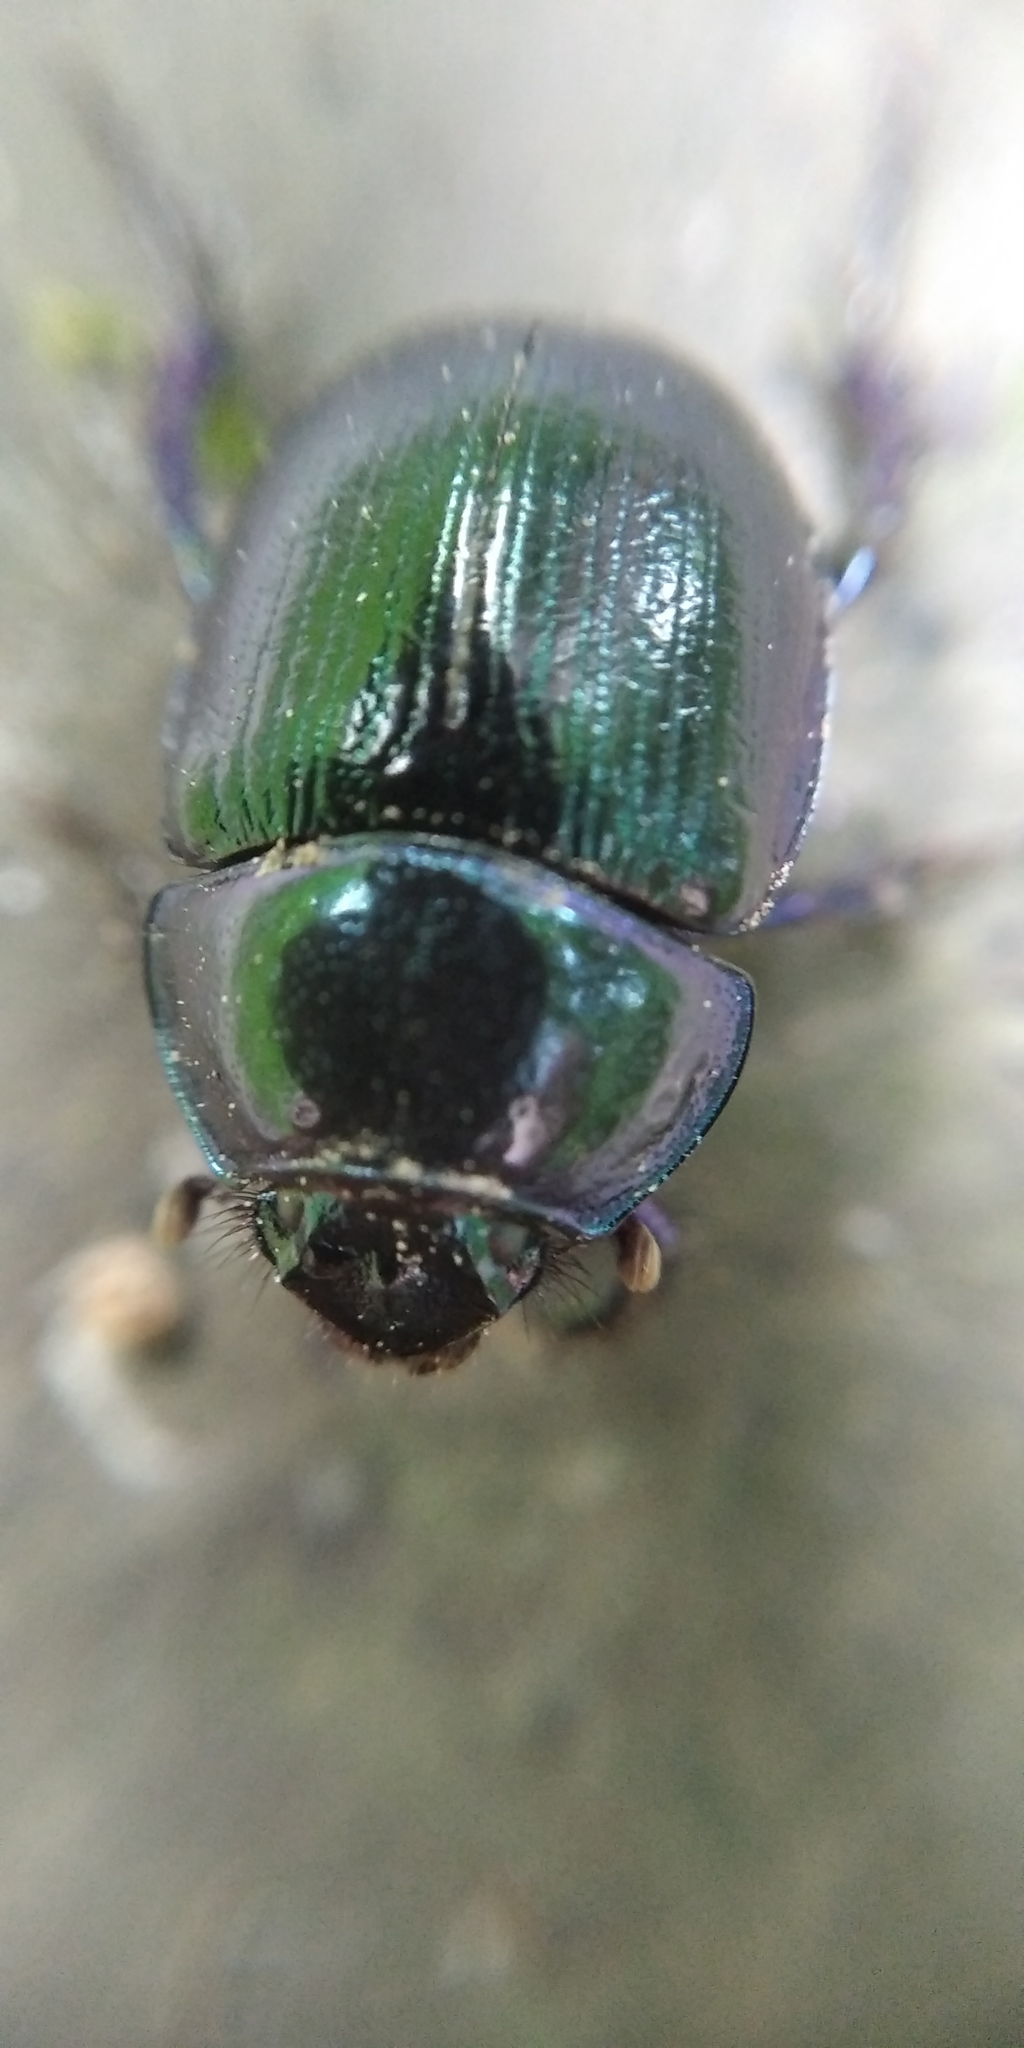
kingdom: Animalia
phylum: Arthropoda
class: Insecta
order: Coleoptera
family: Geotrupidae
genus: Trypocopris
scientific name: Trypocopris vernalis
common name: Spring dumbledor
